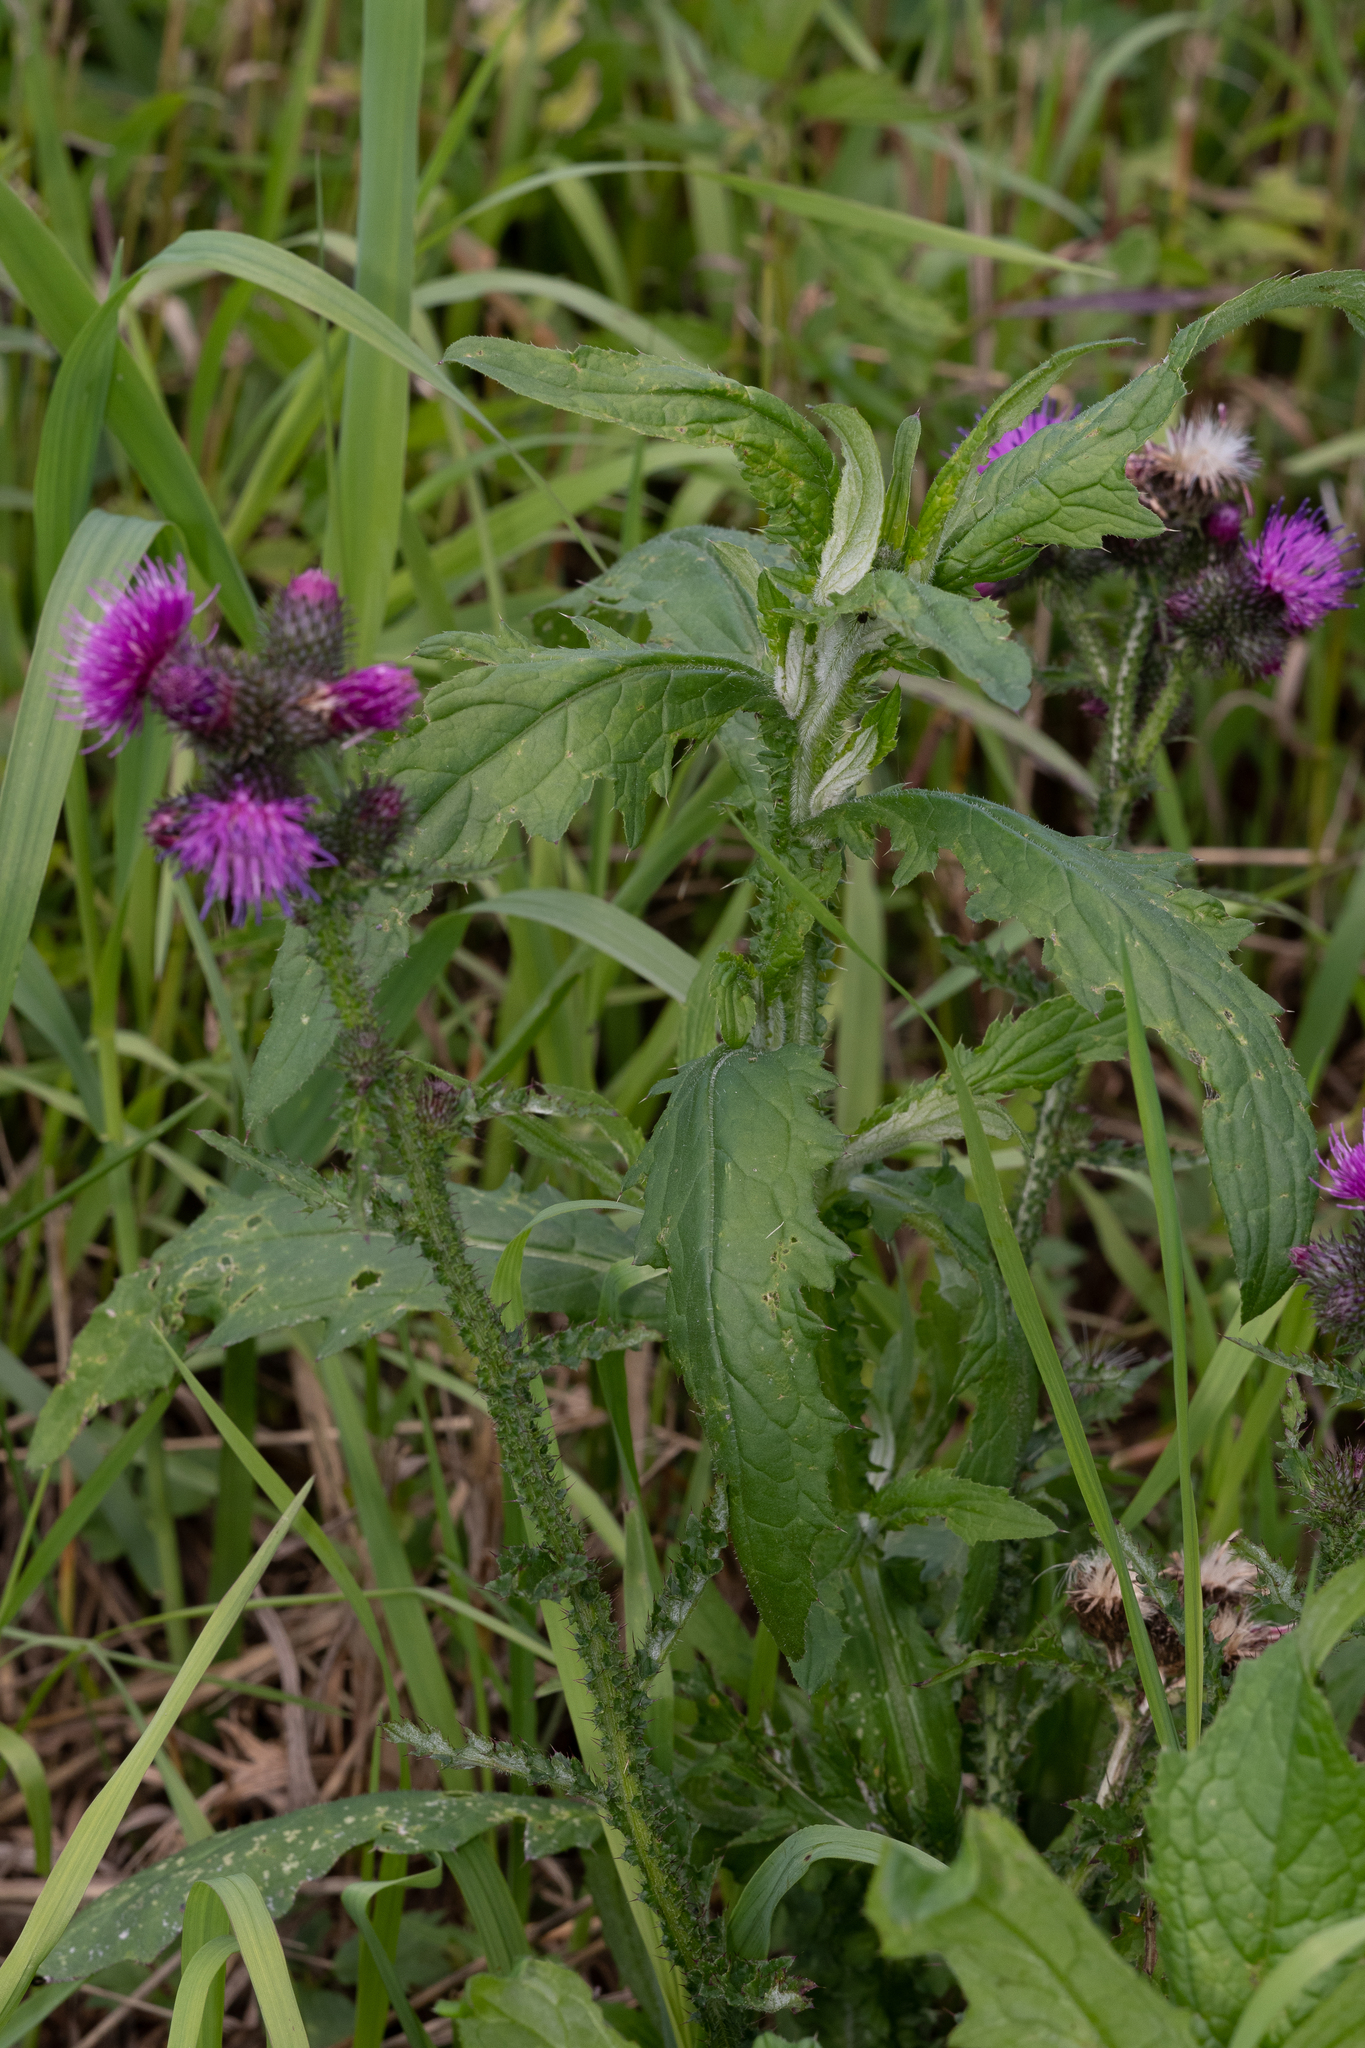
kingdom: Plantae
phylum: Tracheophyta
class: Magnoliopsida
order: Asterales
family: Asteraceae
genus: Carduus
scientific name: Carduus crispus
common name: Welted thistle
